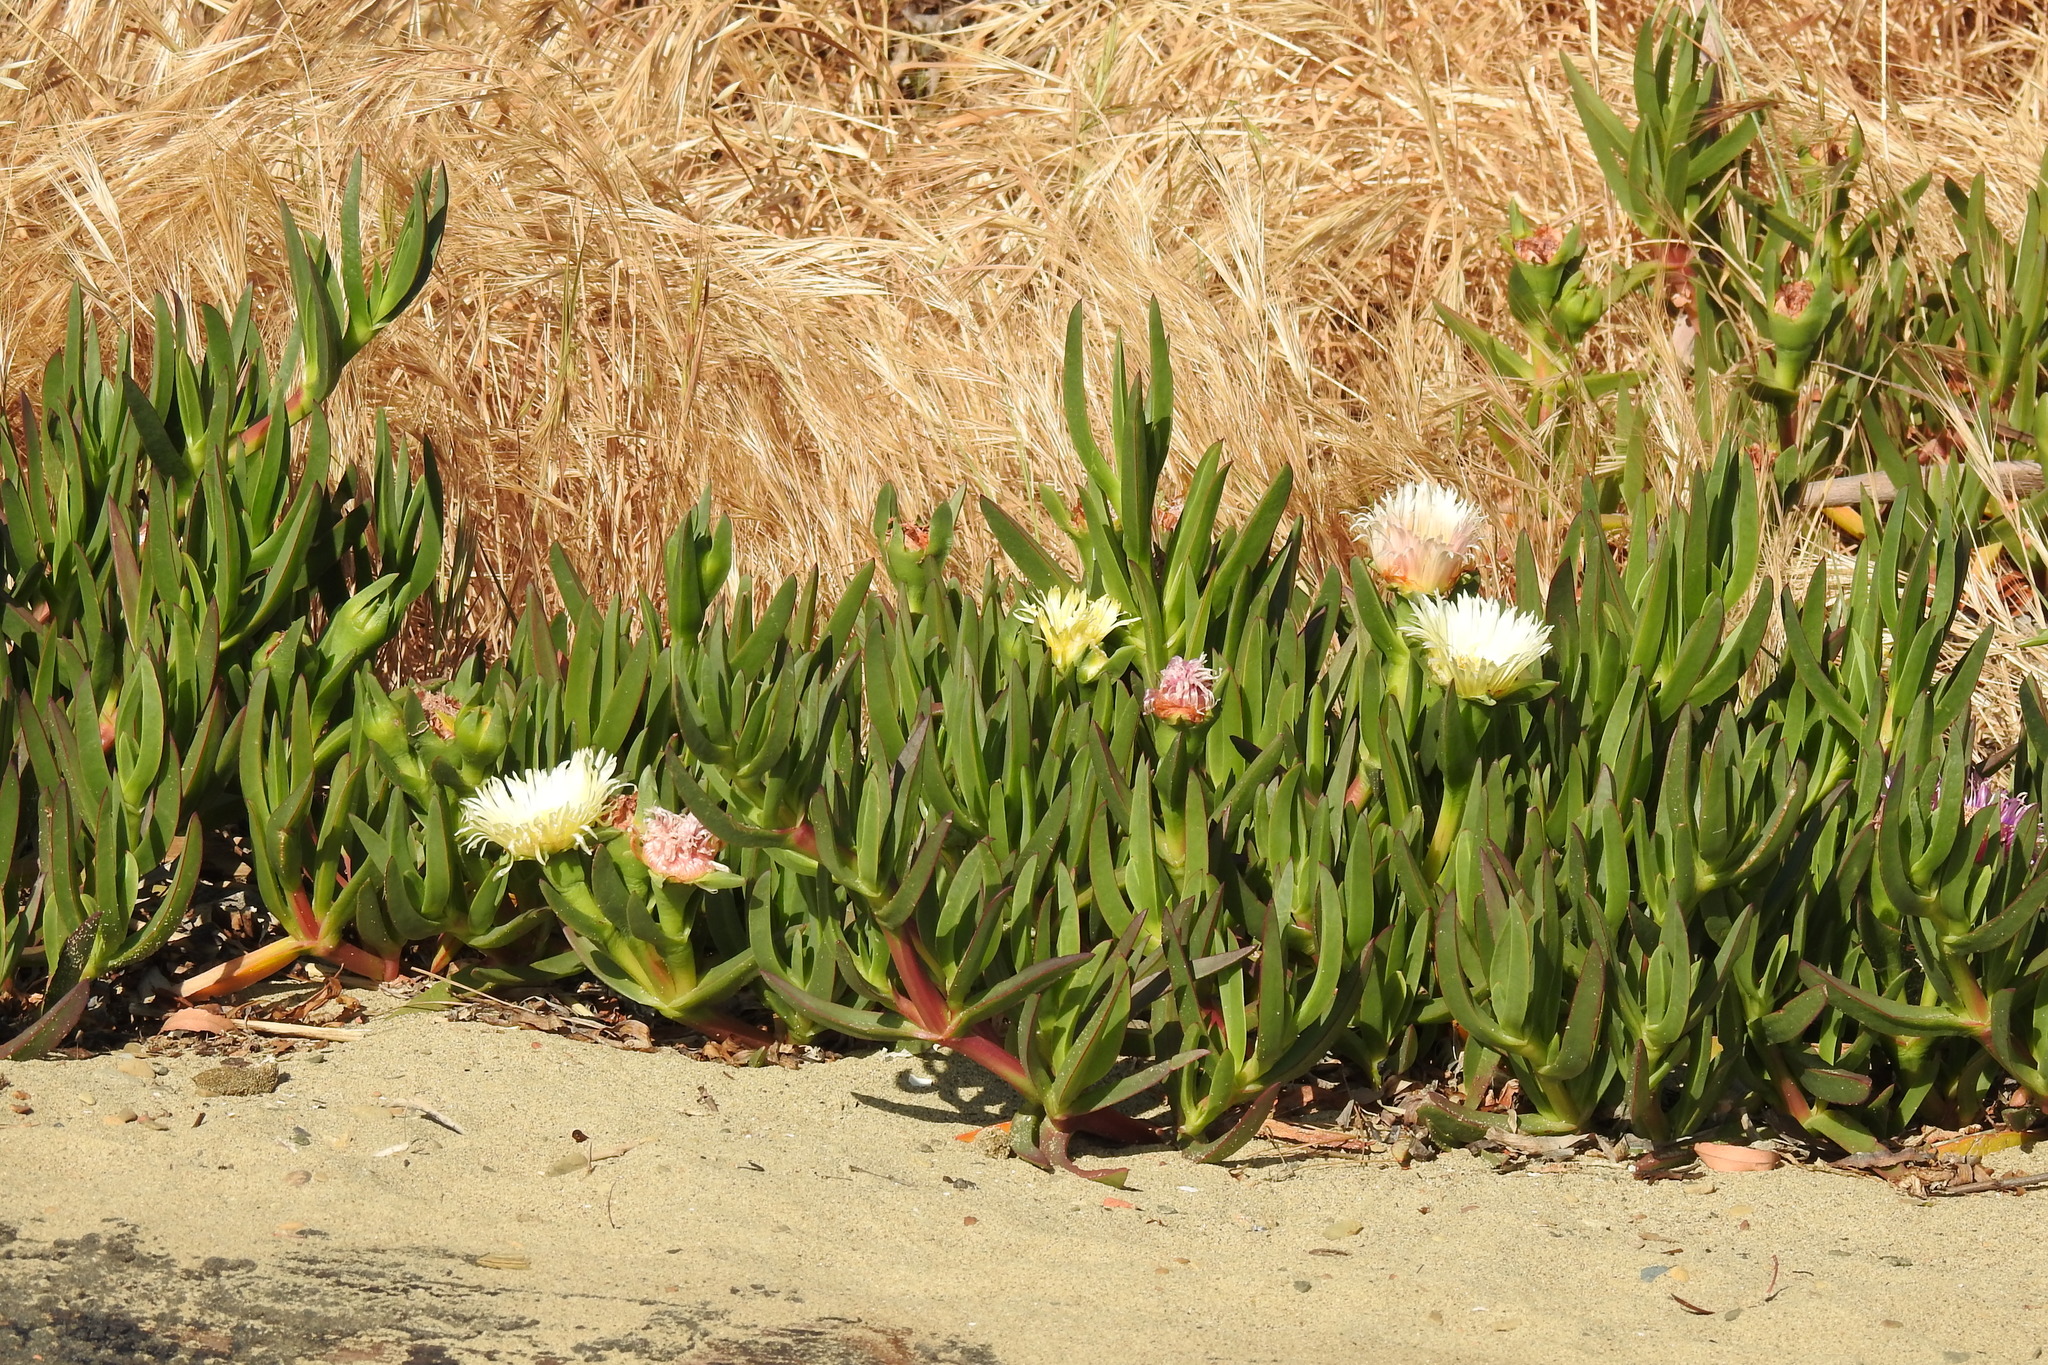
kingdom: Plantae
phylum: Tracheophyta
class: Magnoliopsida
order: Caryophyllales
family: Aizoaceae
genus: Carpobrotus
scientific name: Carpobrotus edulis
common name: Hottentot-fig
